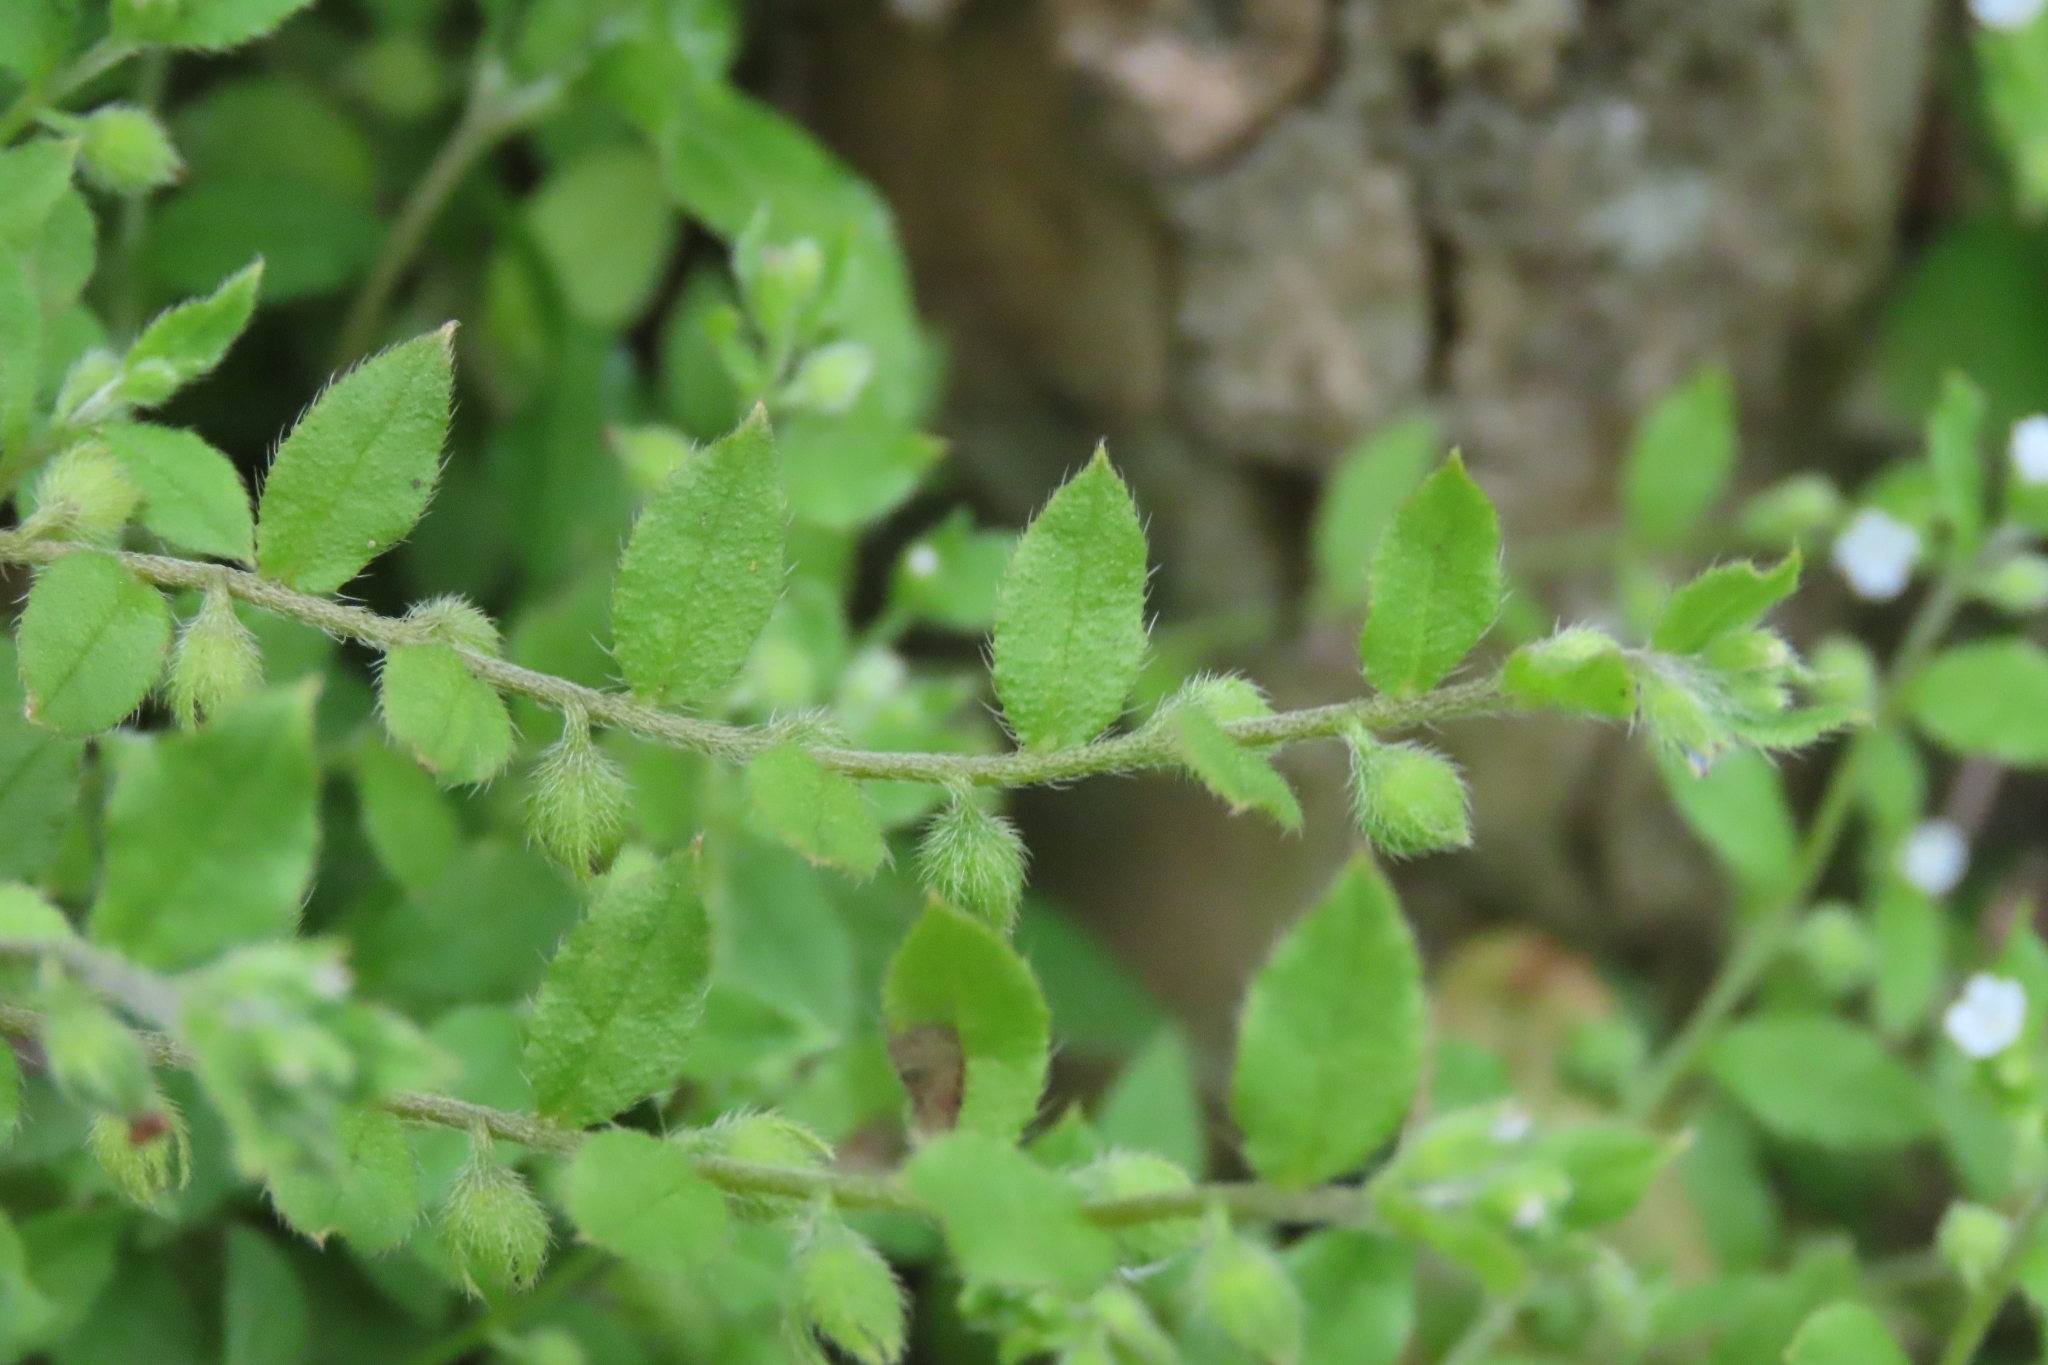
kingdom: Plantae
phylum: Tracheophyta
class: Magnoliopsida
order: Boraginales
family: Boraginaceae
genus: Bothriospermum
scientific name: Bothriospermum zeylanicum
